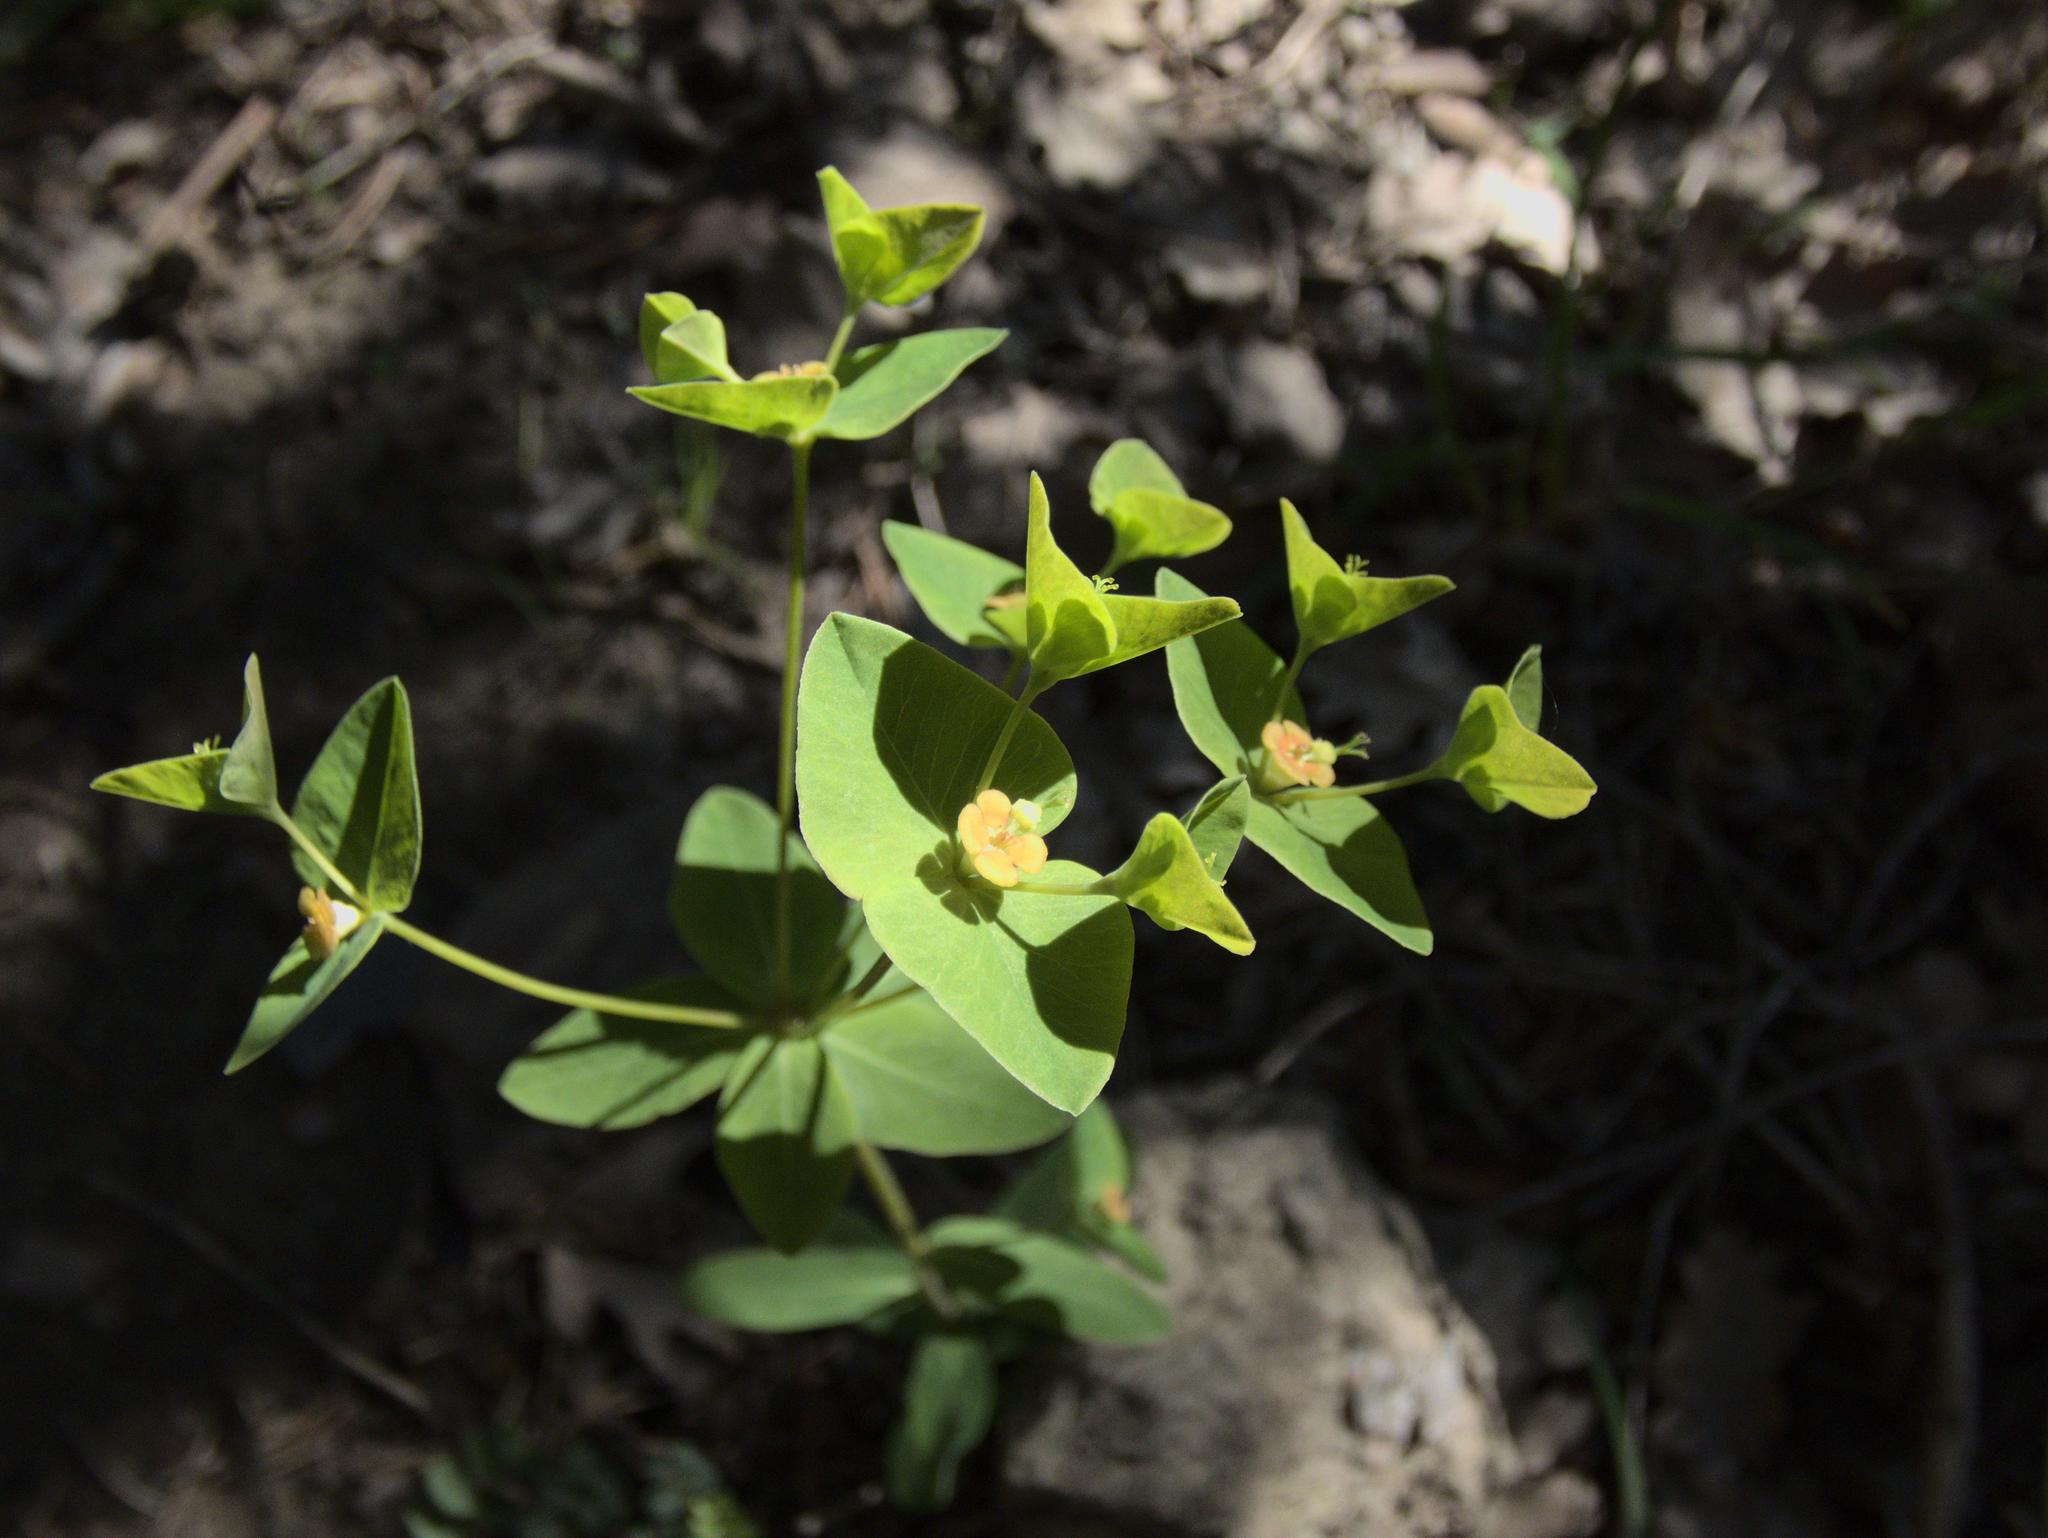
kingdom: Plantae
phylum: Tracheophyta
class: Magnoliopsida
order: Malpighiales
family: Euphorbiaceae
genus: Euphorbia
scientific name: Euphorbia dulcis
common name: Sweet spurge
